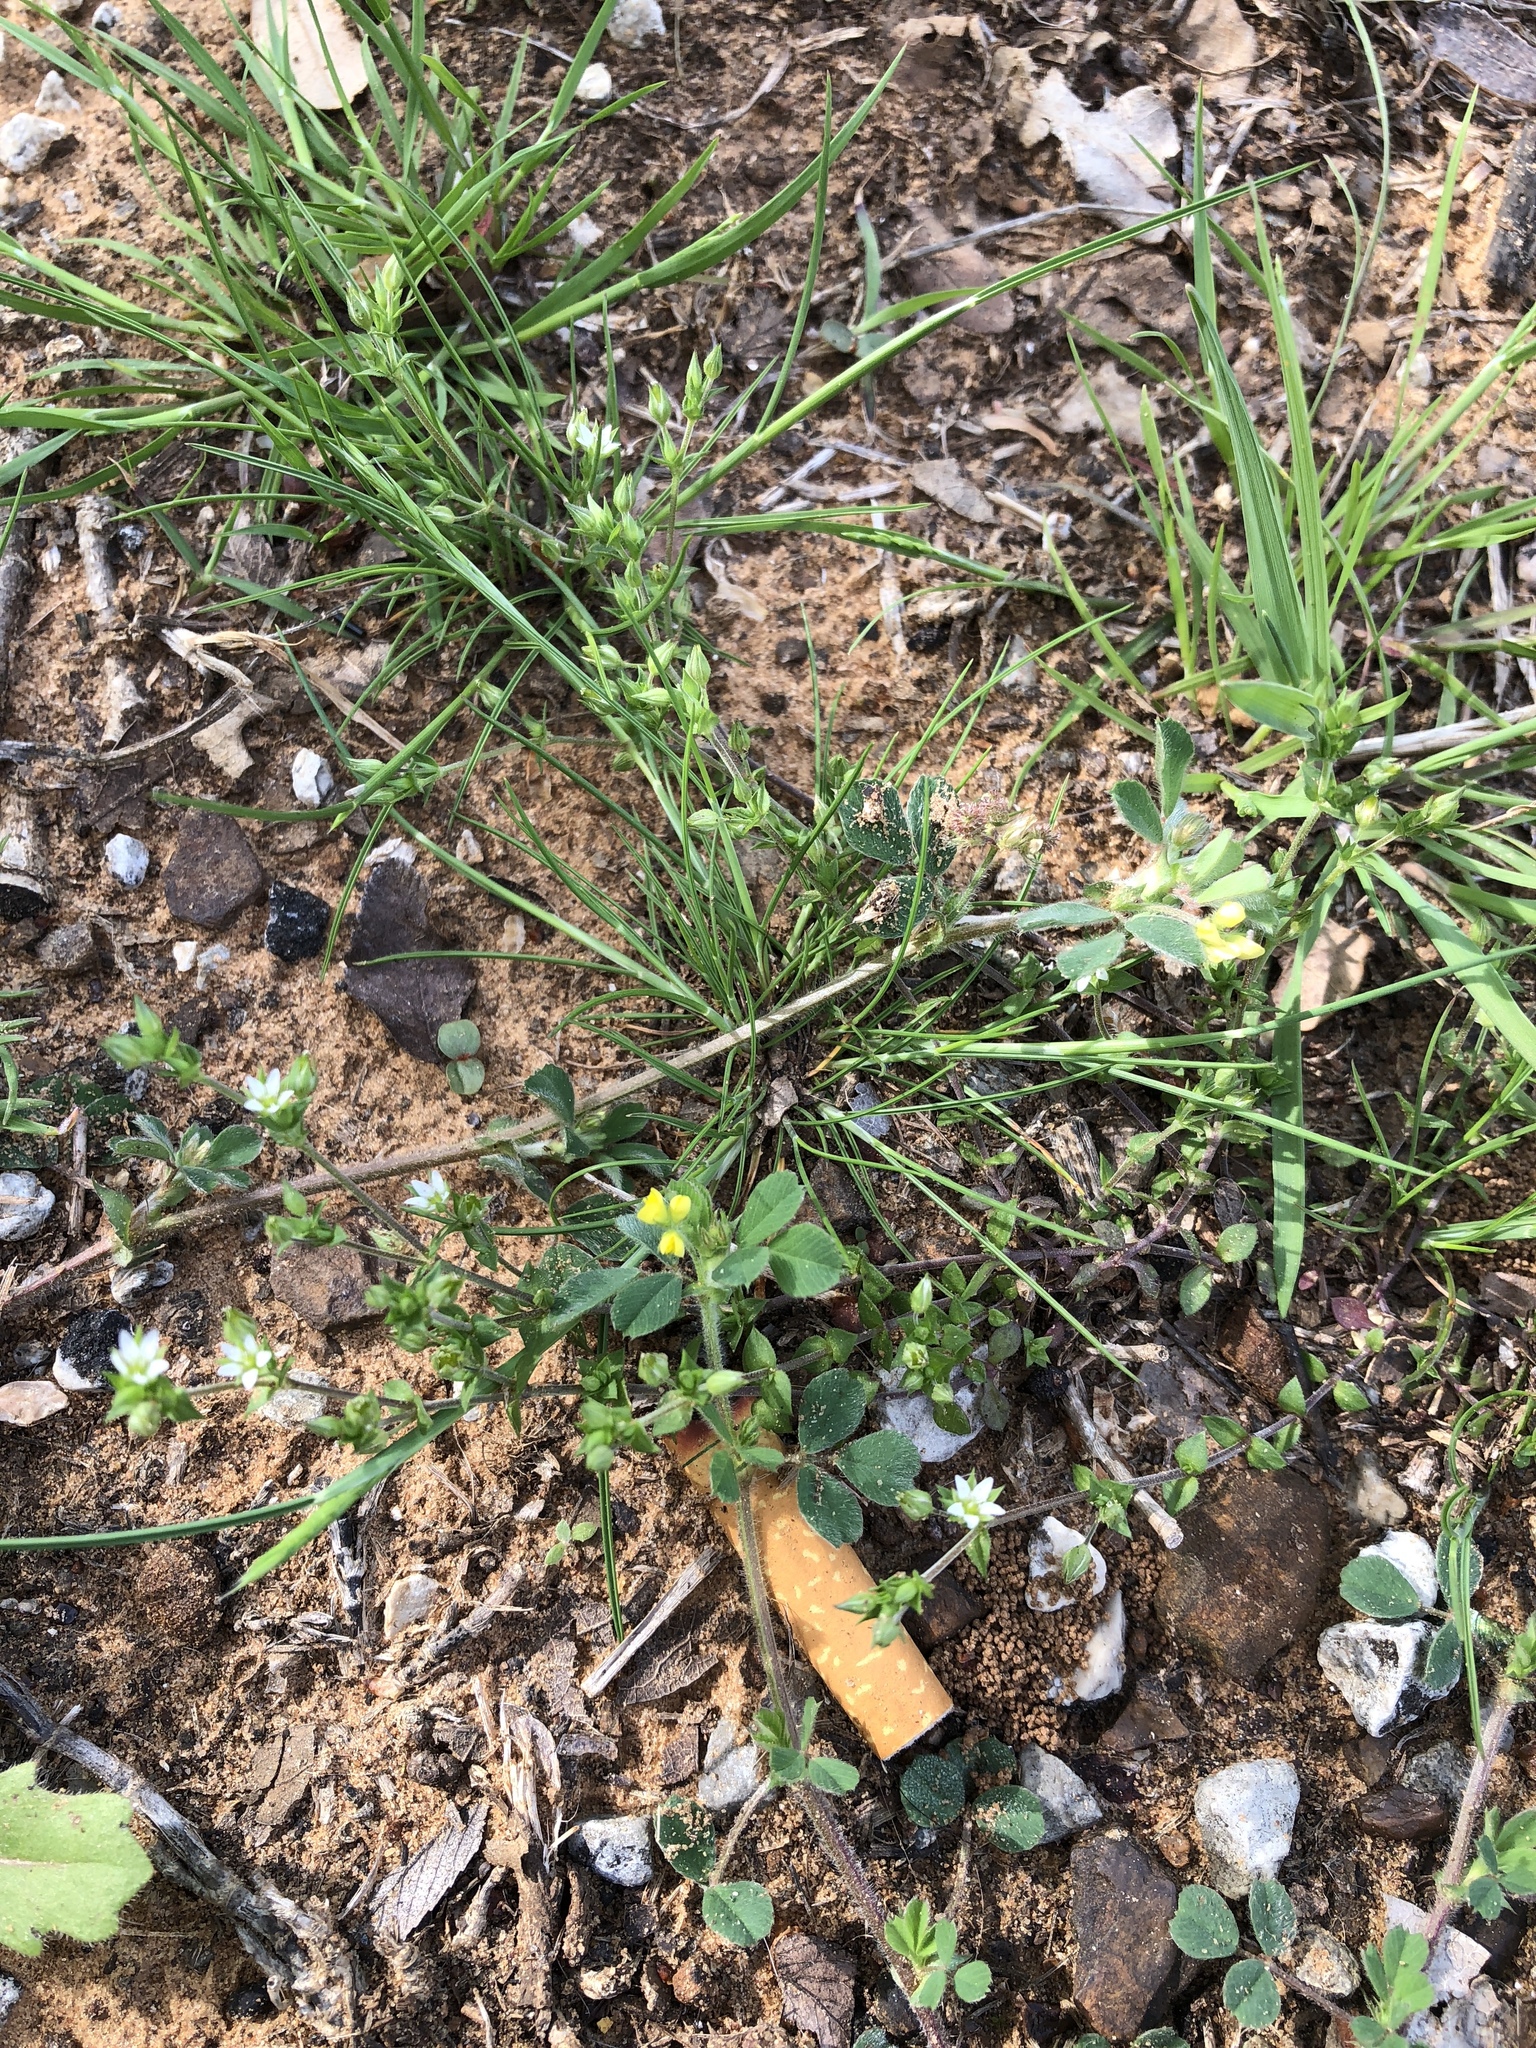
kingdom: Plantae
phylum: Tracheophyta
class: Magnoliopsida
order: Caryophyllales
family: Caryophyllaceae
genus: Arenaria
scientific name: Arenaria serpyllifolia
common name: Thyme-leaved sandwort
